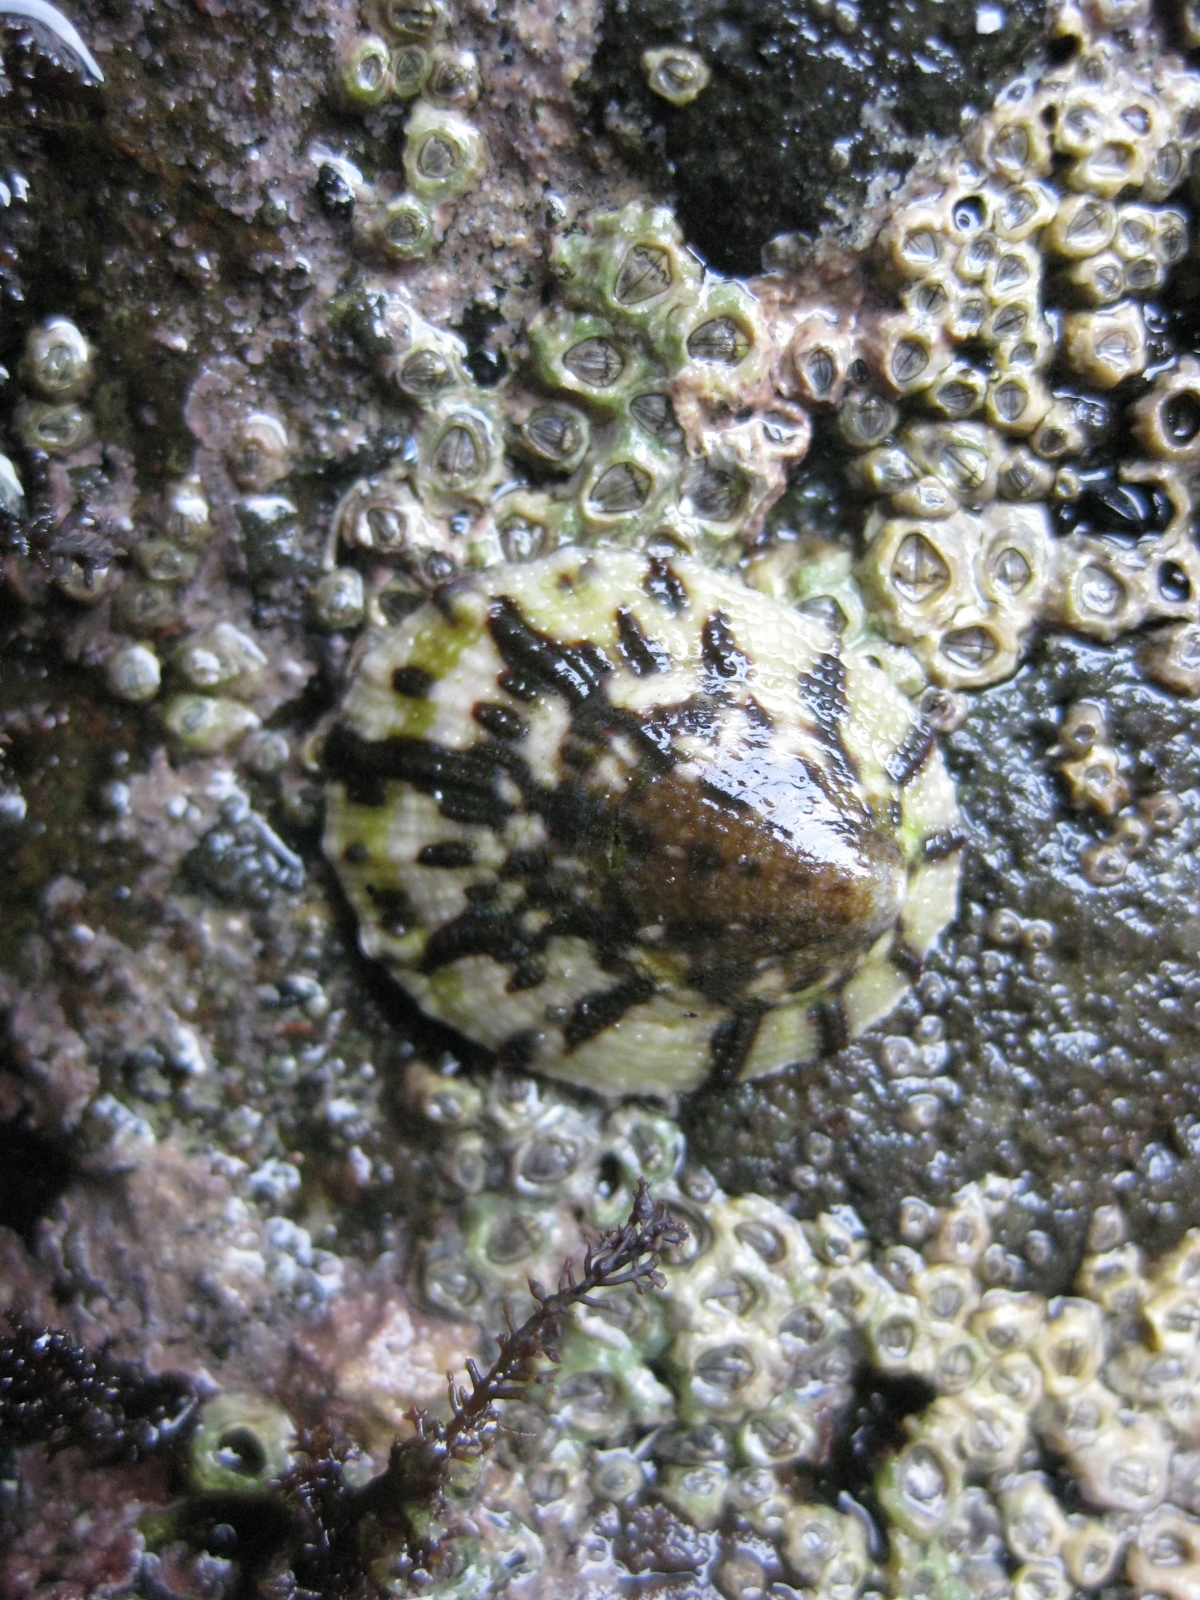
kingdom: Animalia
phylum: Mollusca
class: Gastropoda
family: Nacellidae
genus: Cellana
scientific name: Cellana radians
